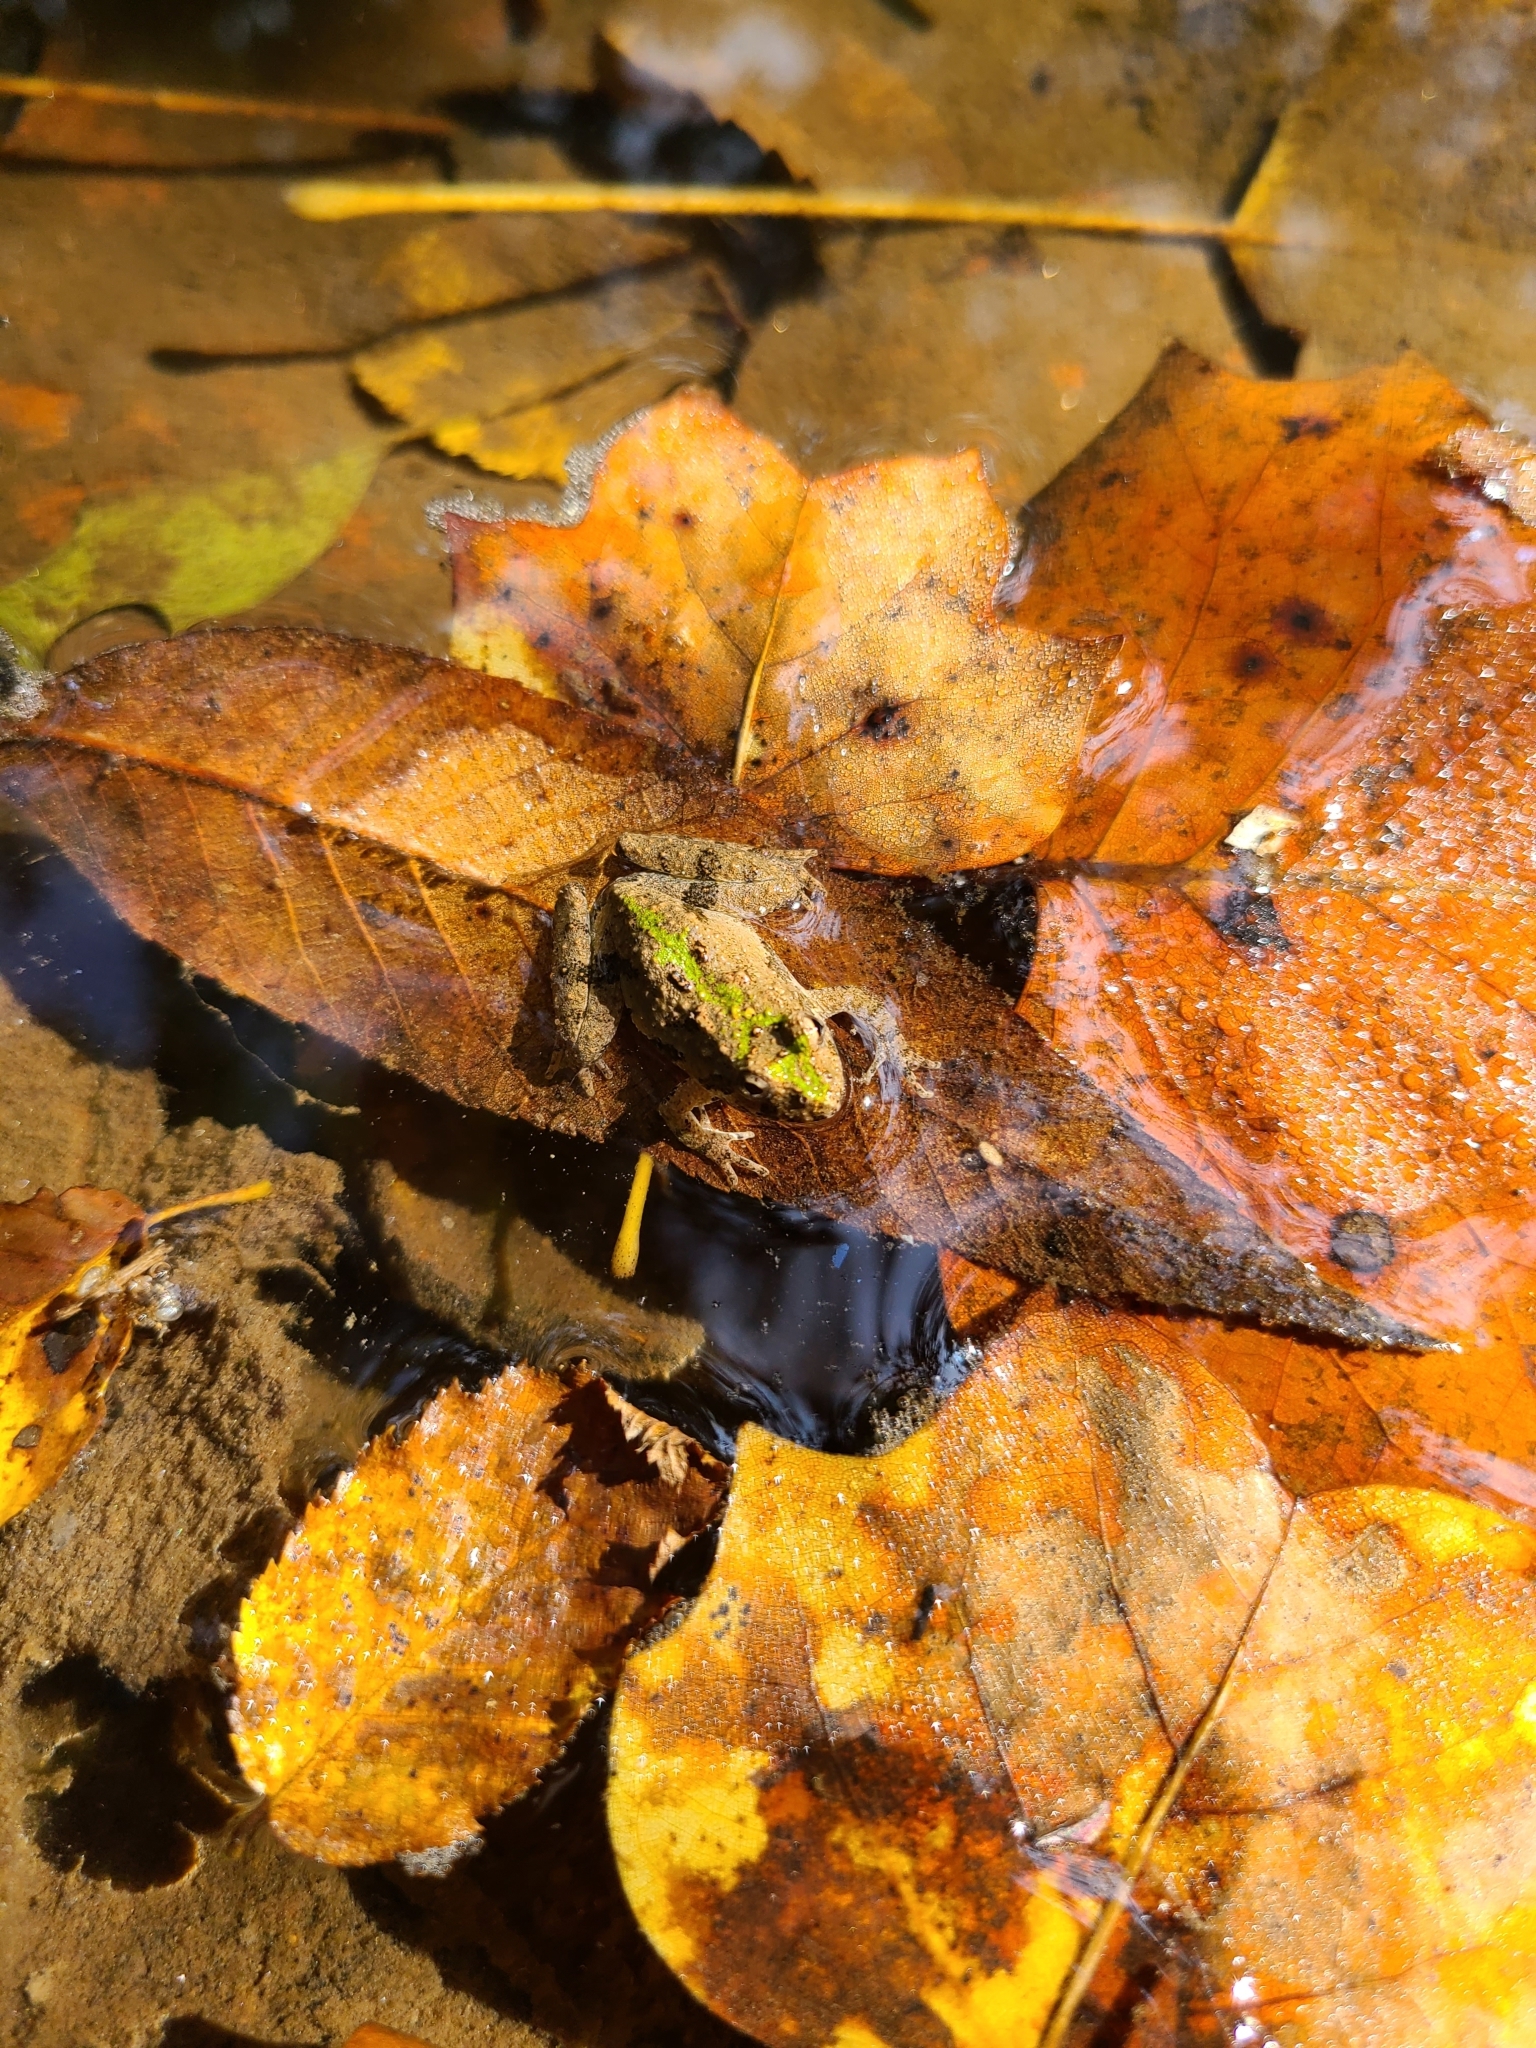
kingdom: Animalia
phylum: Chordata
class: Amphibia
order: Anura
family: Hylidae
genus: Acris
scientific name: Acris crepitans
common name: Northern cricket frog
